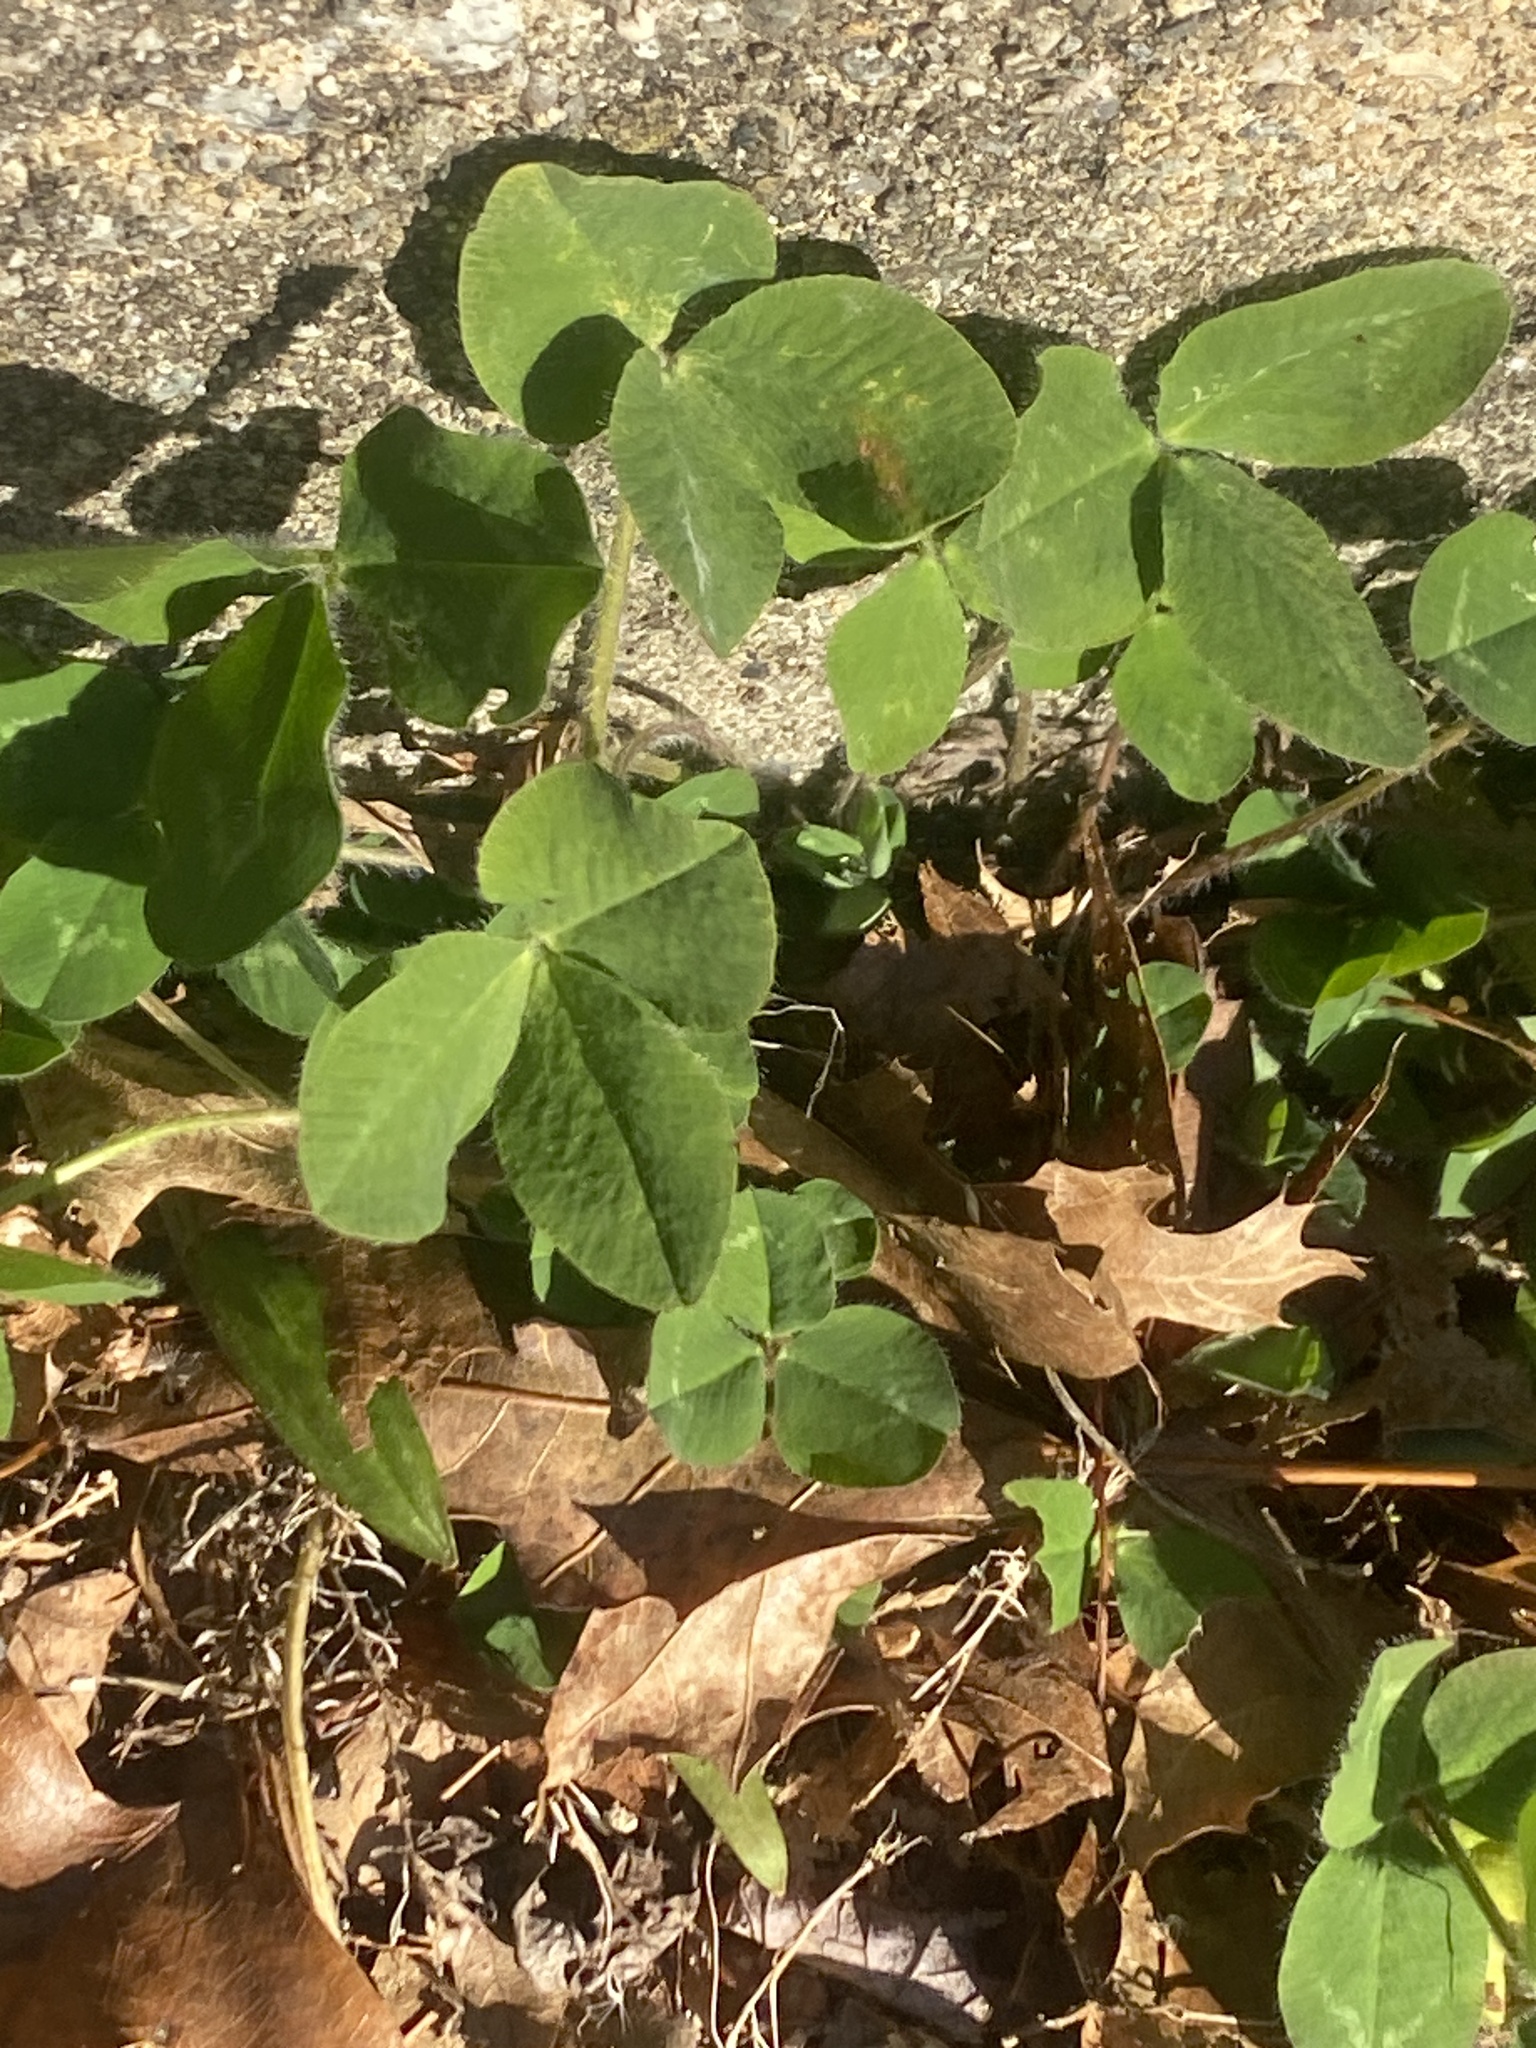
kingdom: Plantae
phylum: Tracheophyta
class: Magnoliopsida
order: Fabales
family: Fabaceae
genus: Trifolium
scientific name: Trifolium pratense
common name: Red clover
